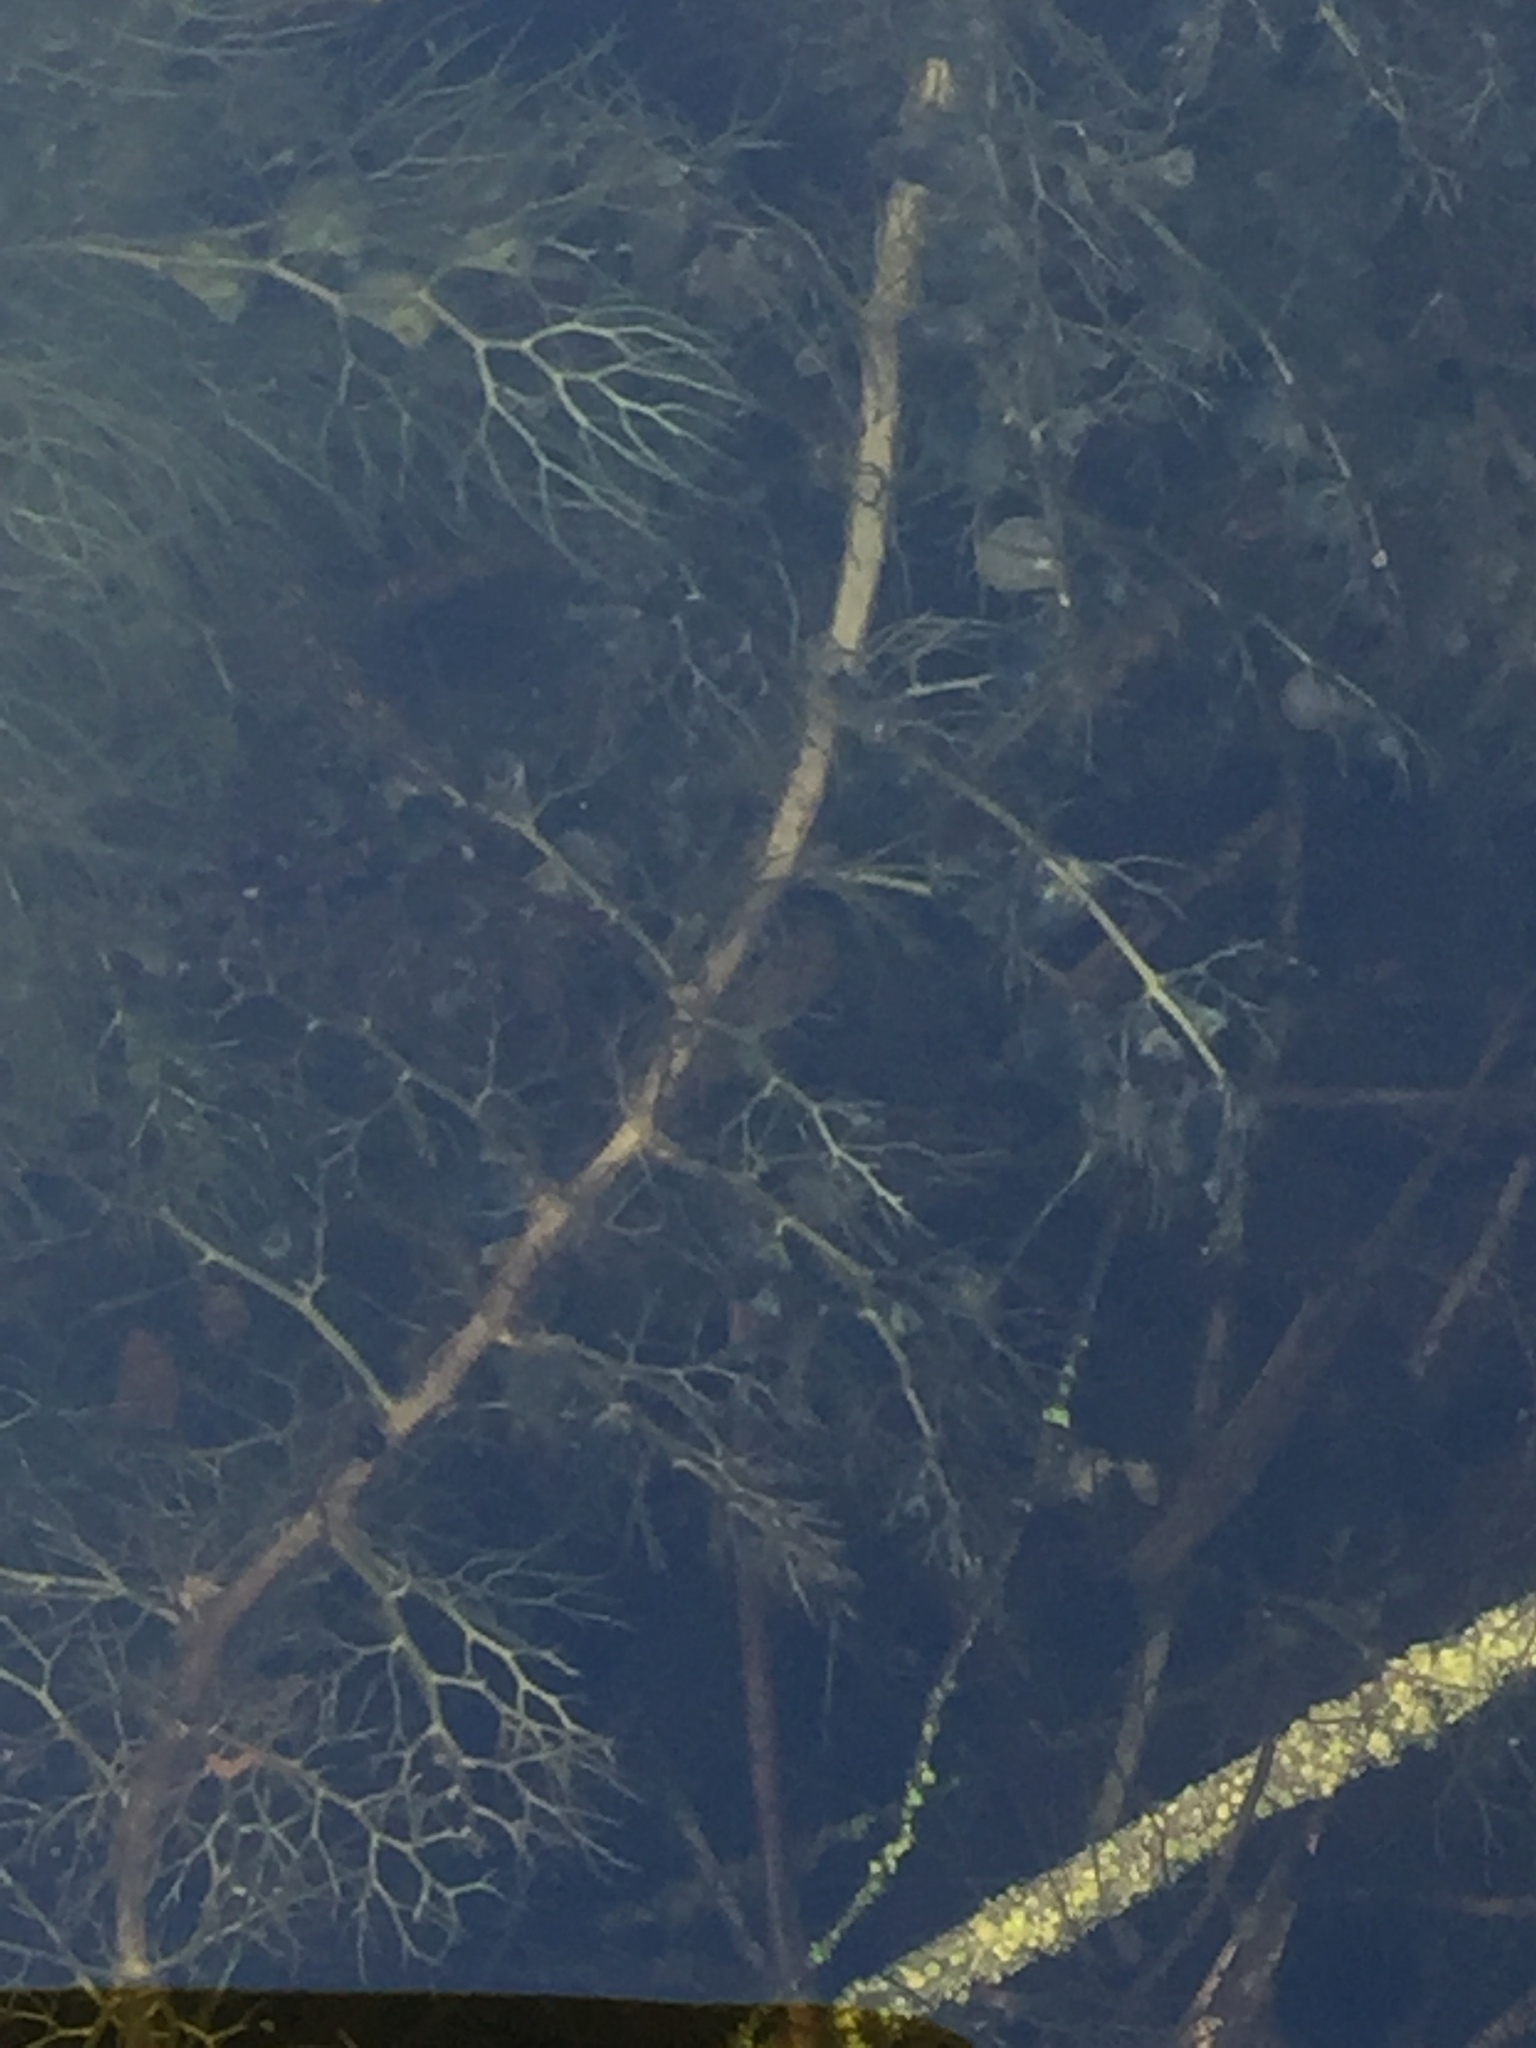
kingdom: Plantae
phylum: Tracheophyta
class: Magnoliopsida
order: Lamiales
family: Lentibulariaceae
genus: Utricularia
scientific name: Utricularia vulgaris
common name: Greater bladderwort
